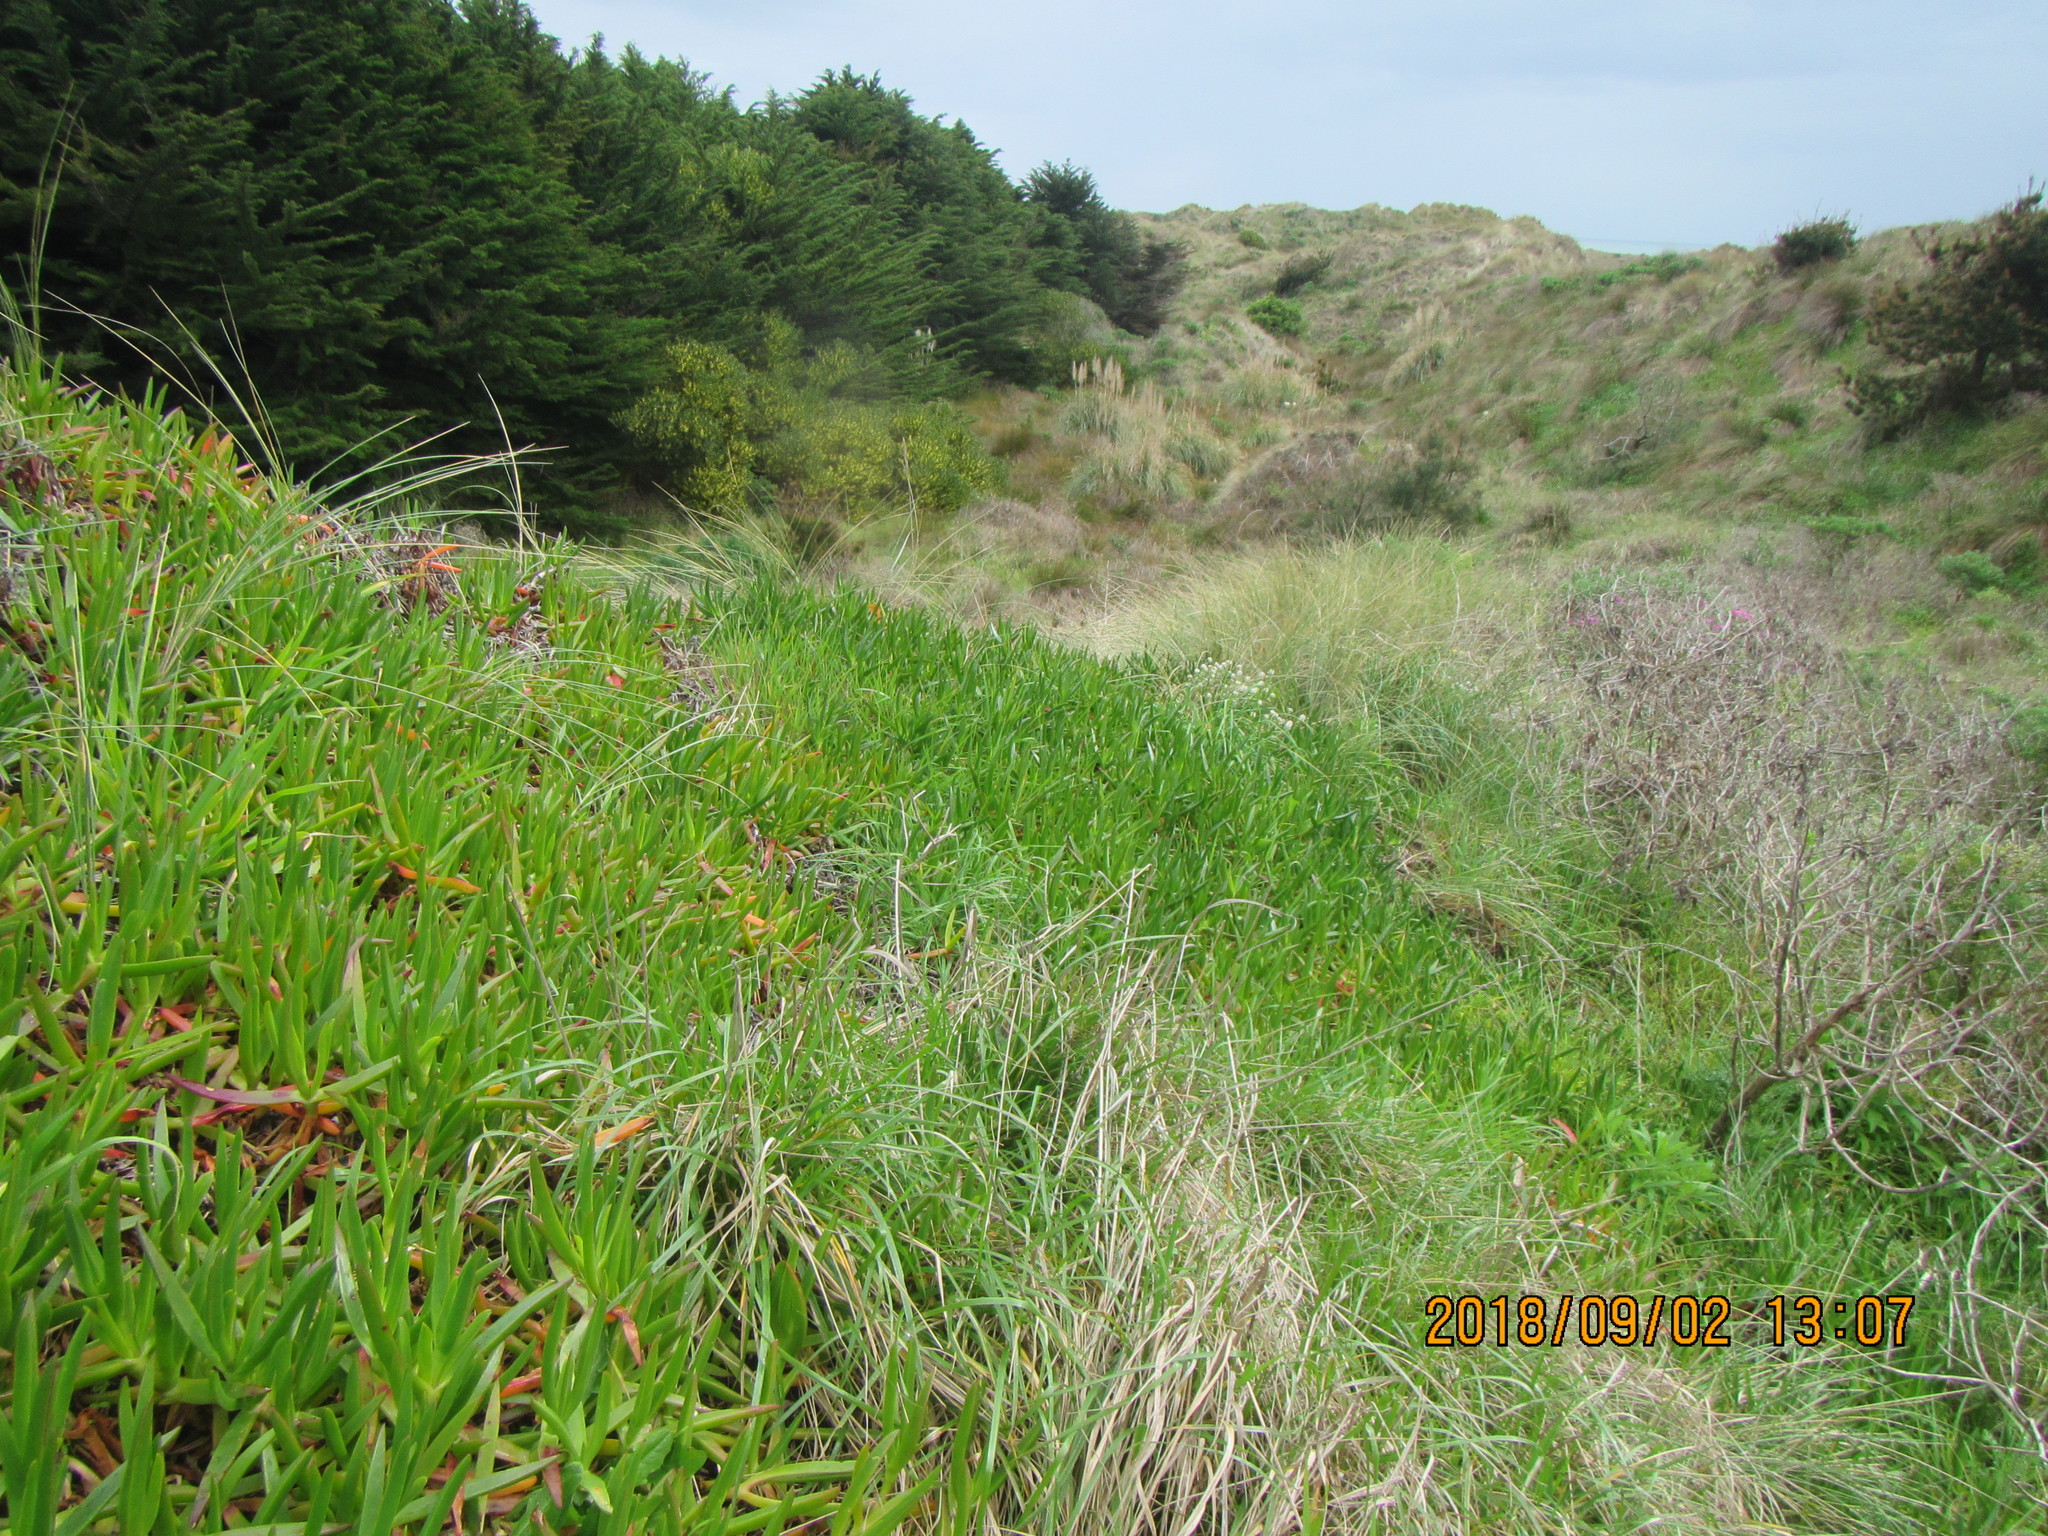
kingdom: Plantae
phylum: Tracheophyta
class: Magnoliopsida
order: Caryophyllales
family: Aizoaceae
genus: Carpobrotus
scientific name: Carpobrotus edulis
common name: Hottentot-fig
